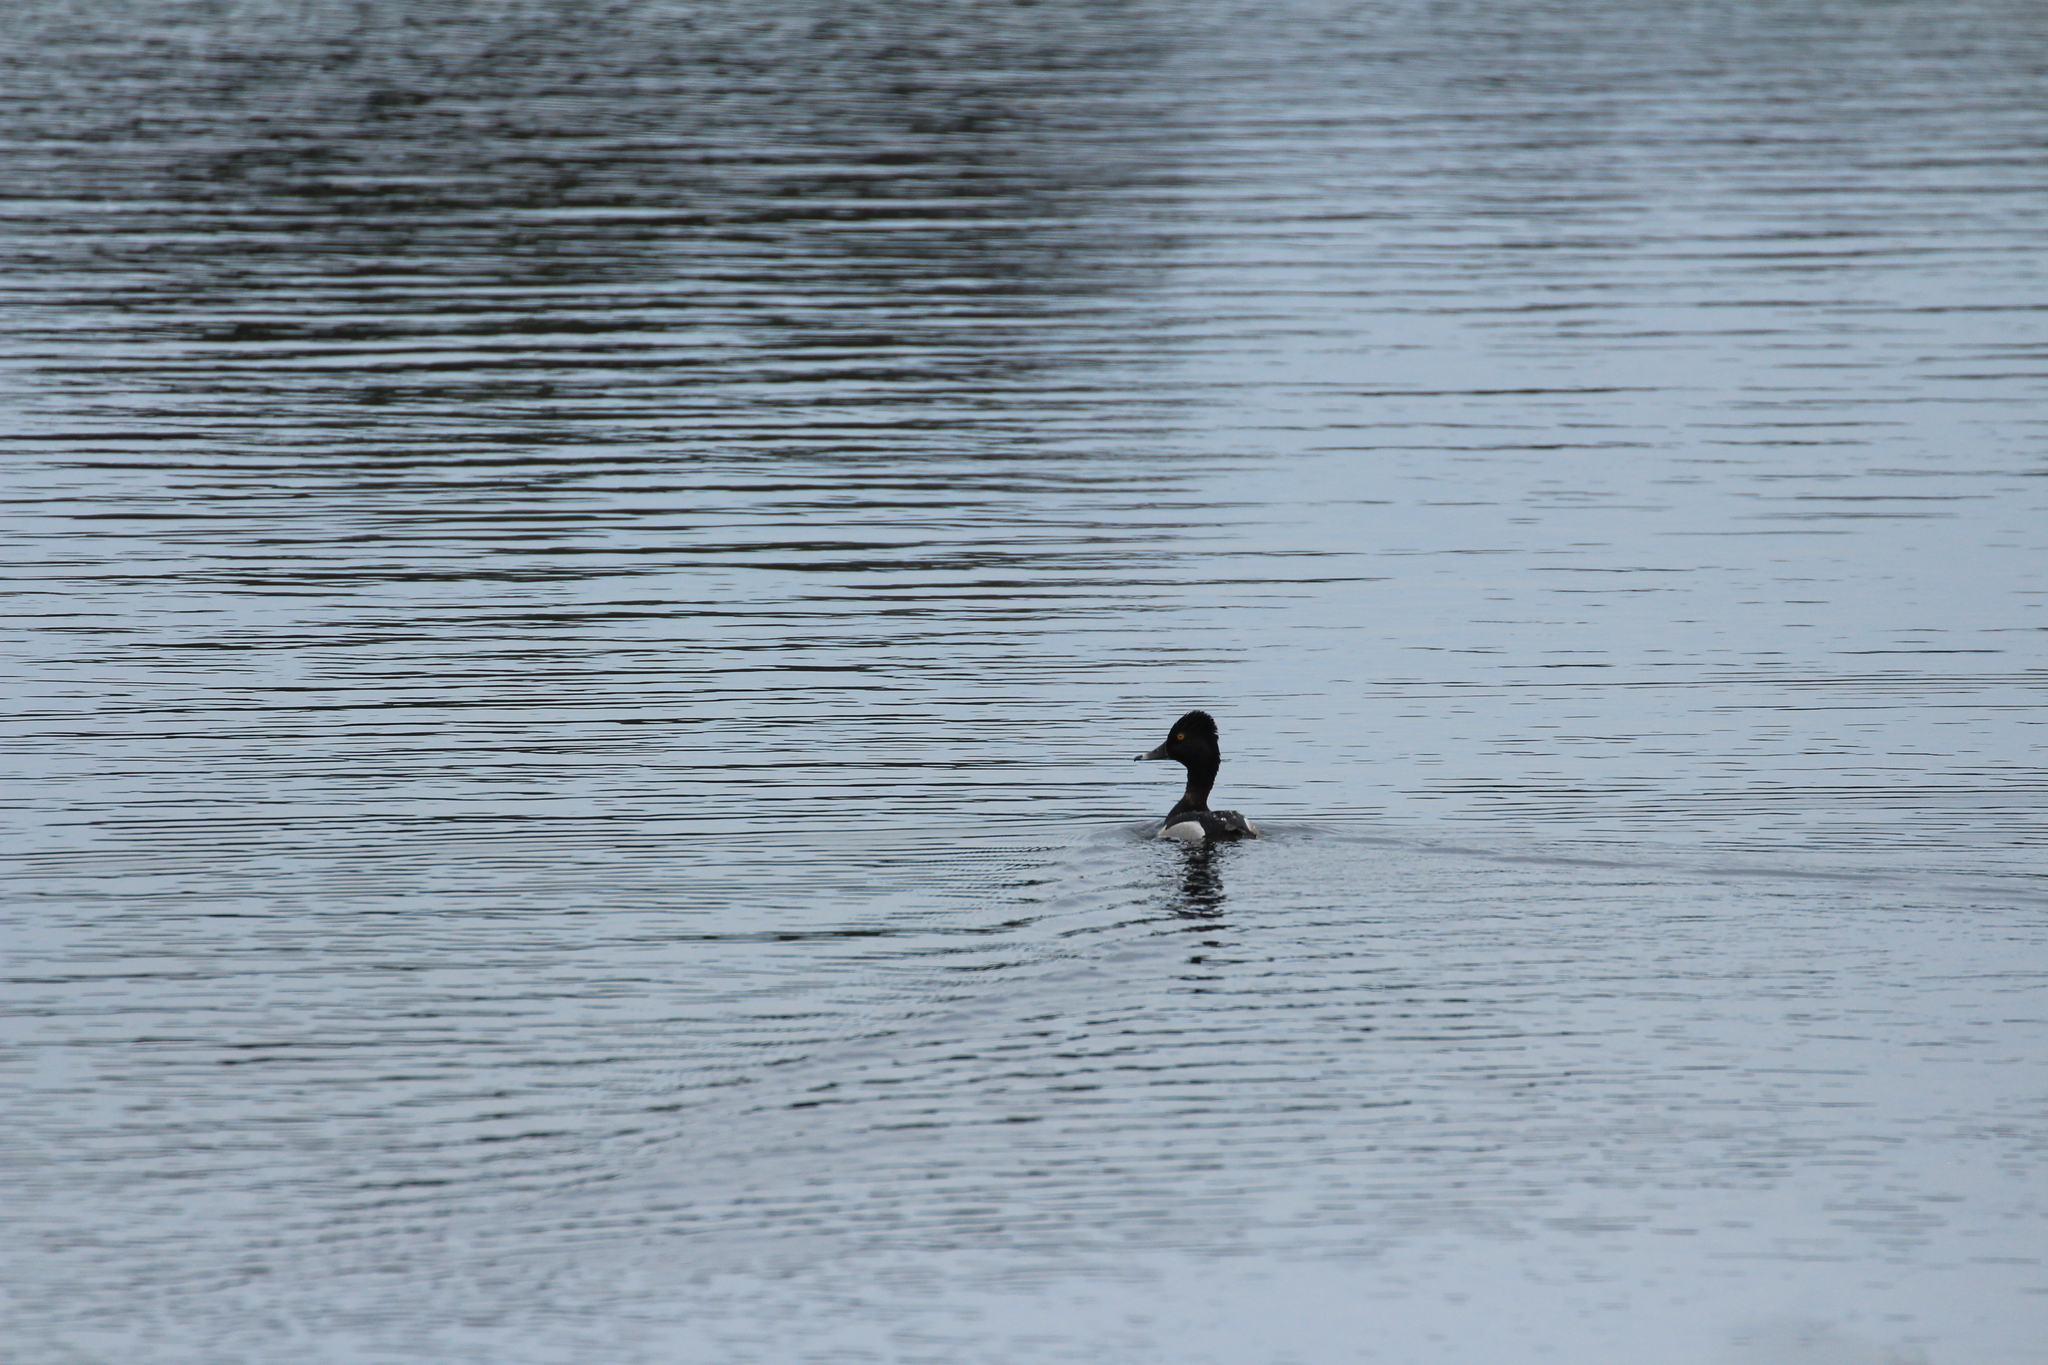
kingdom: Animalia
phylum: Chordata
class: Aves
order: Anseriformes
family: Anatidae
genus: Aythya
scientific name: Aythya collaris
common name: Ring-necked duck
